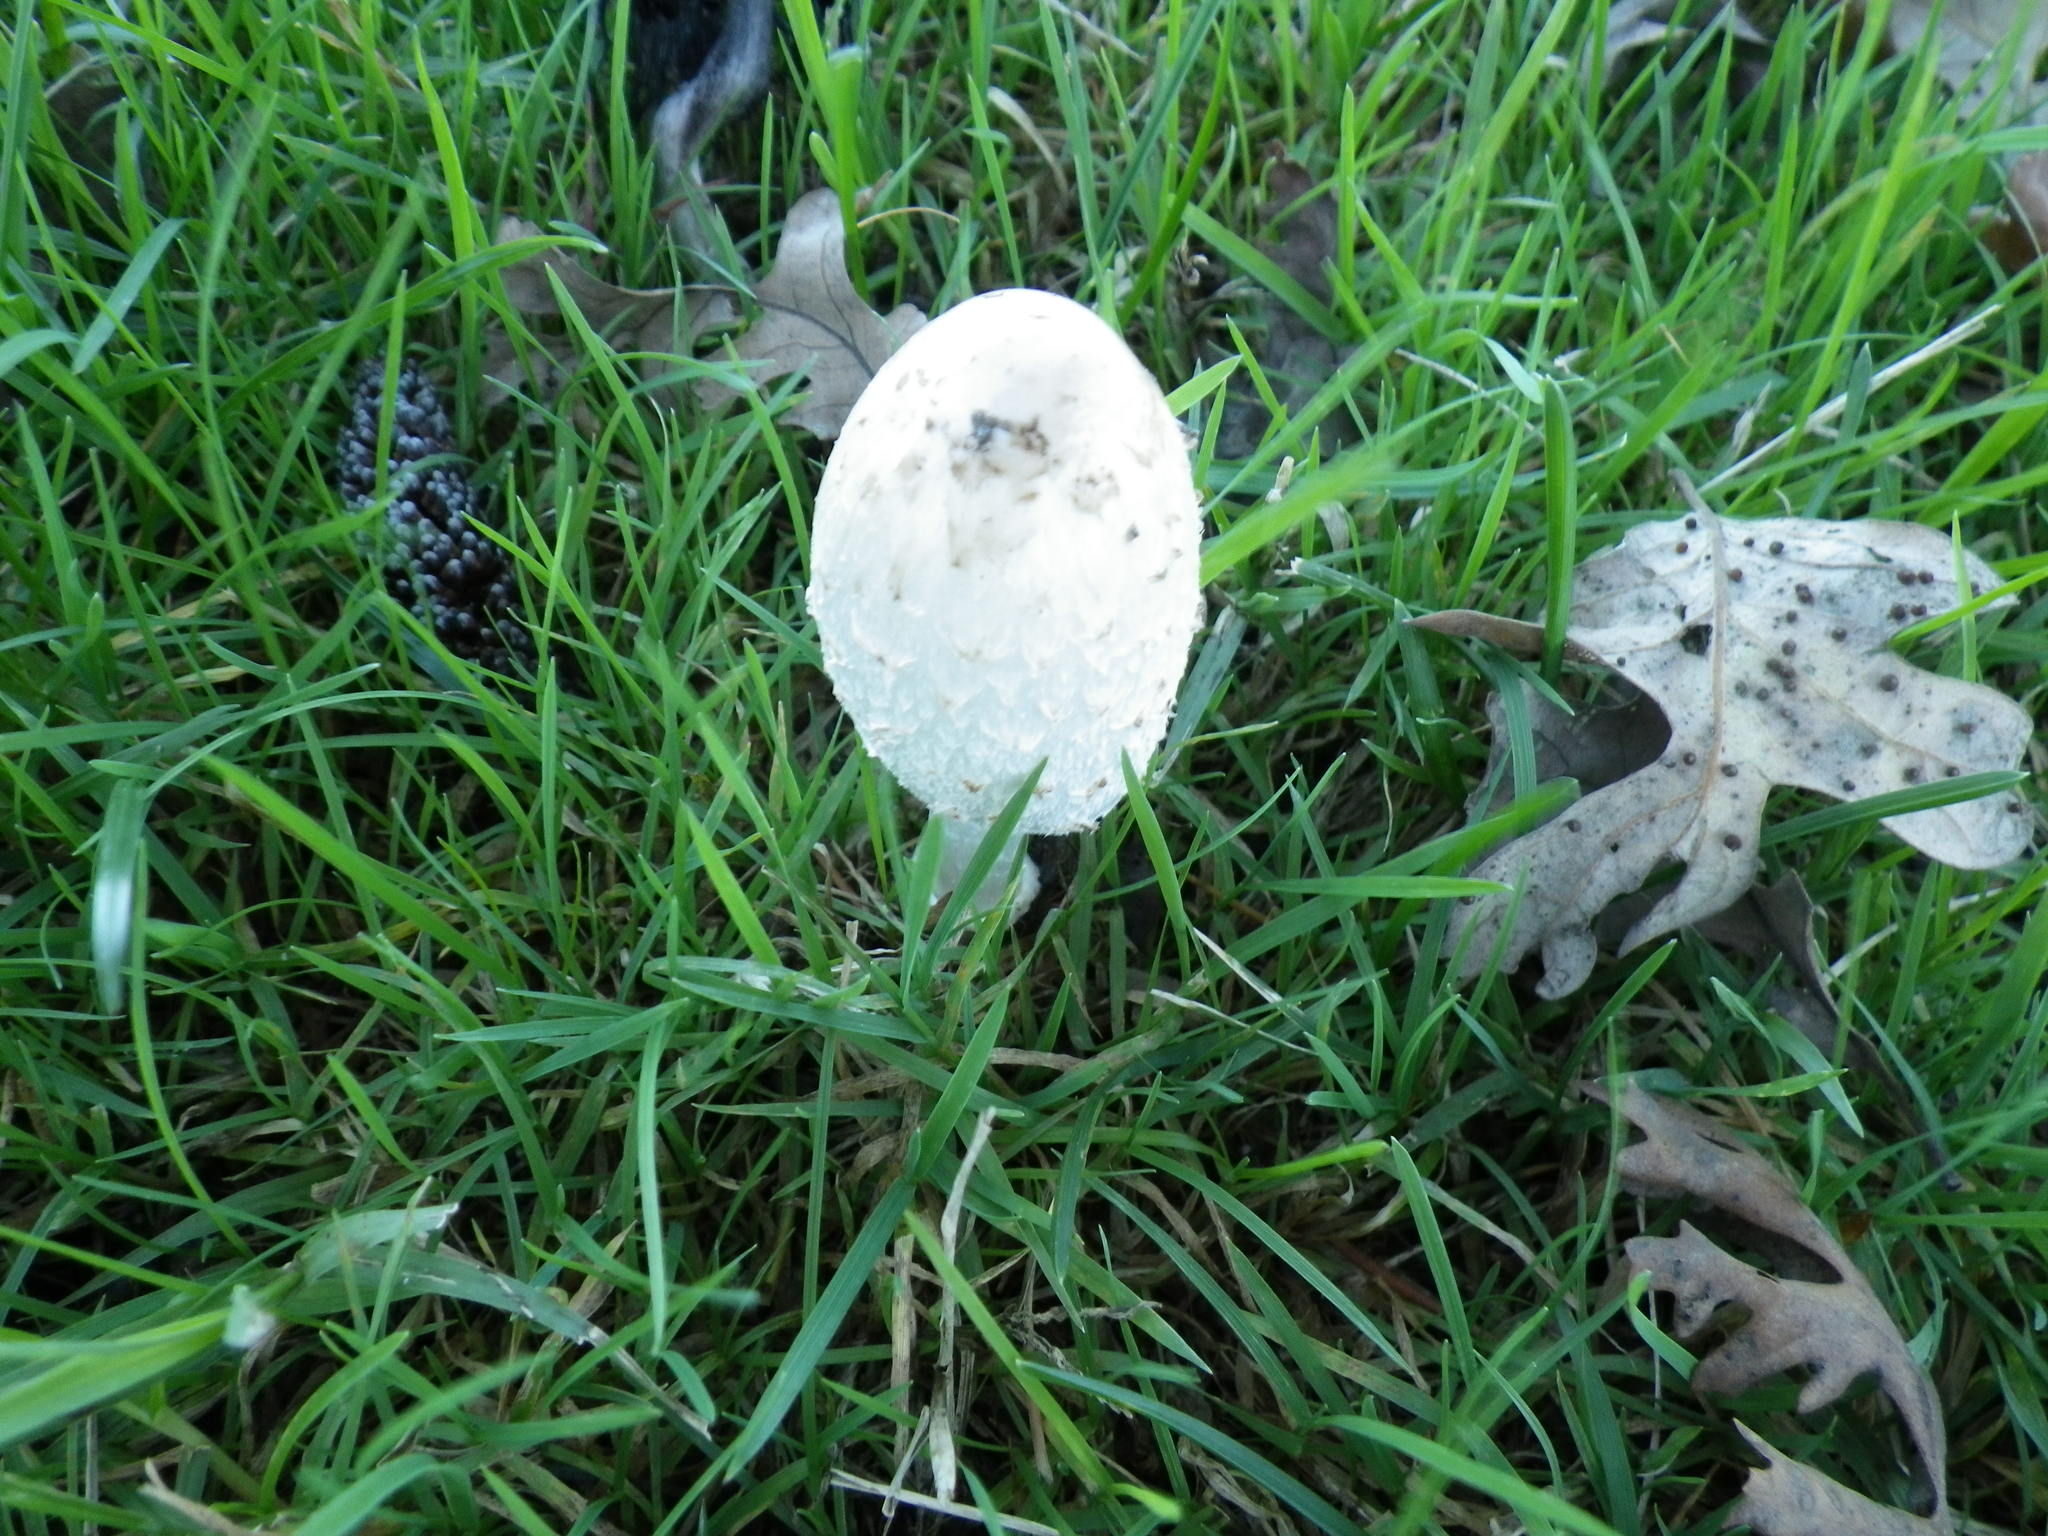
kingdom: Fungi
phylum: Basidiomycota
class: Agaricomycetes
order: Agaricales
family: Agaricaceae
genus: Coprinus
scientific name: Coprinus comatus
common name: Lawyer's wig
